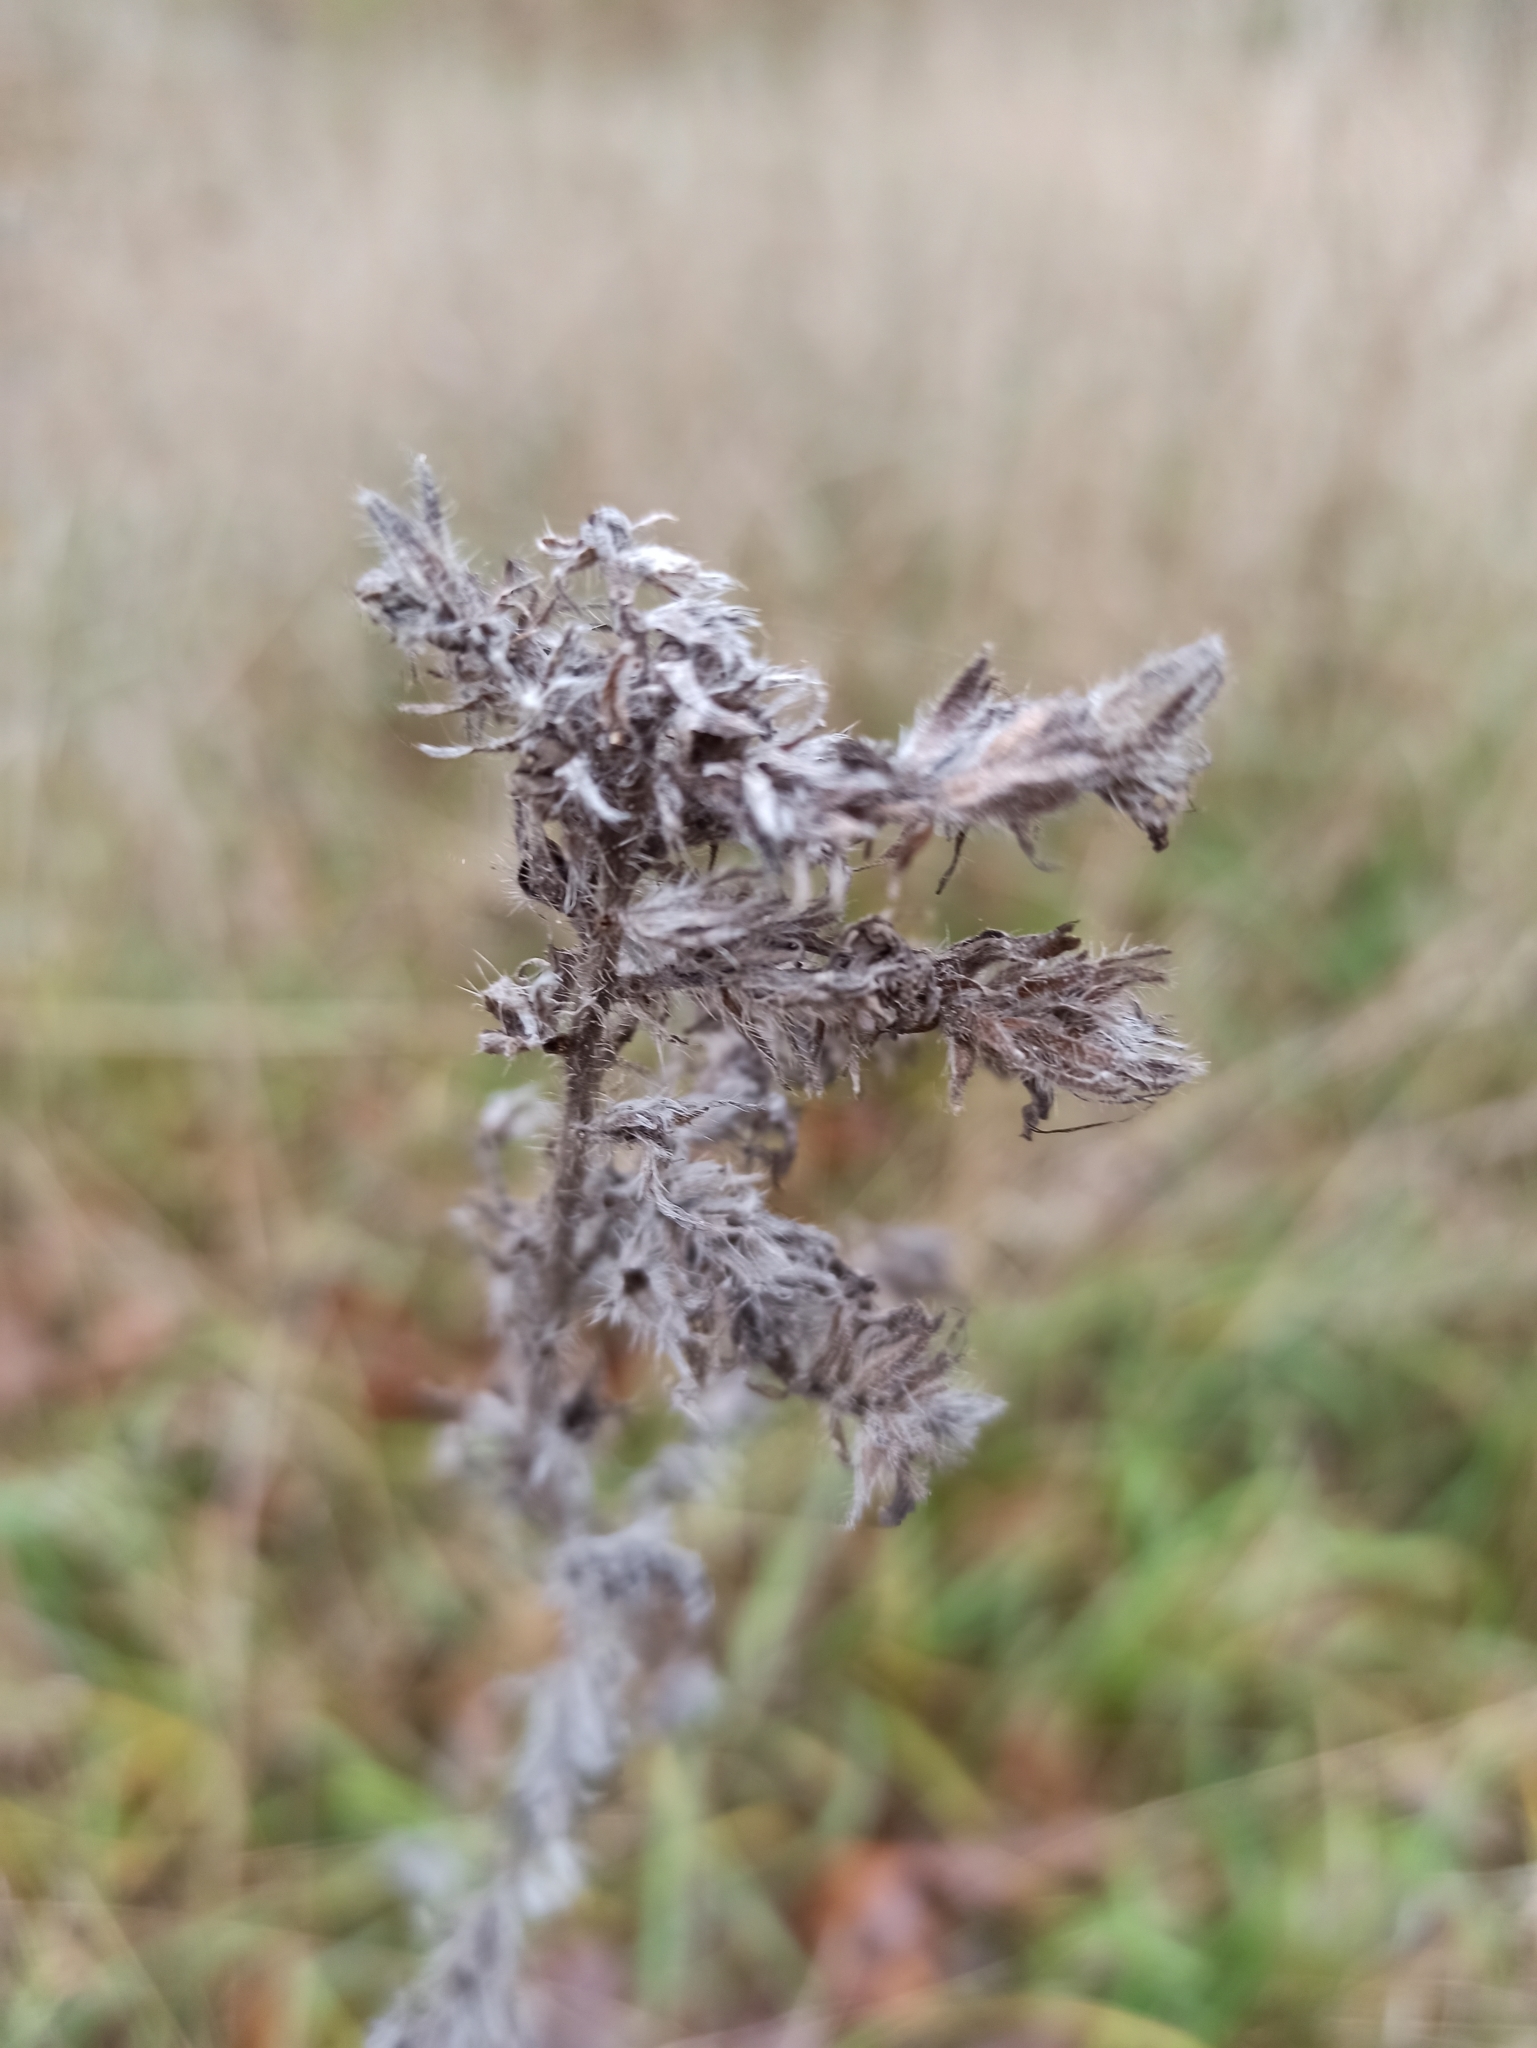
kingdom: Plantae
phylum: Tracheophyta
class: Magnoliopsida
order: Boraginales
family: Boraginaceae
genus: Echium
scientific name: Echium vulgare
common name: Common viper's bugloss
